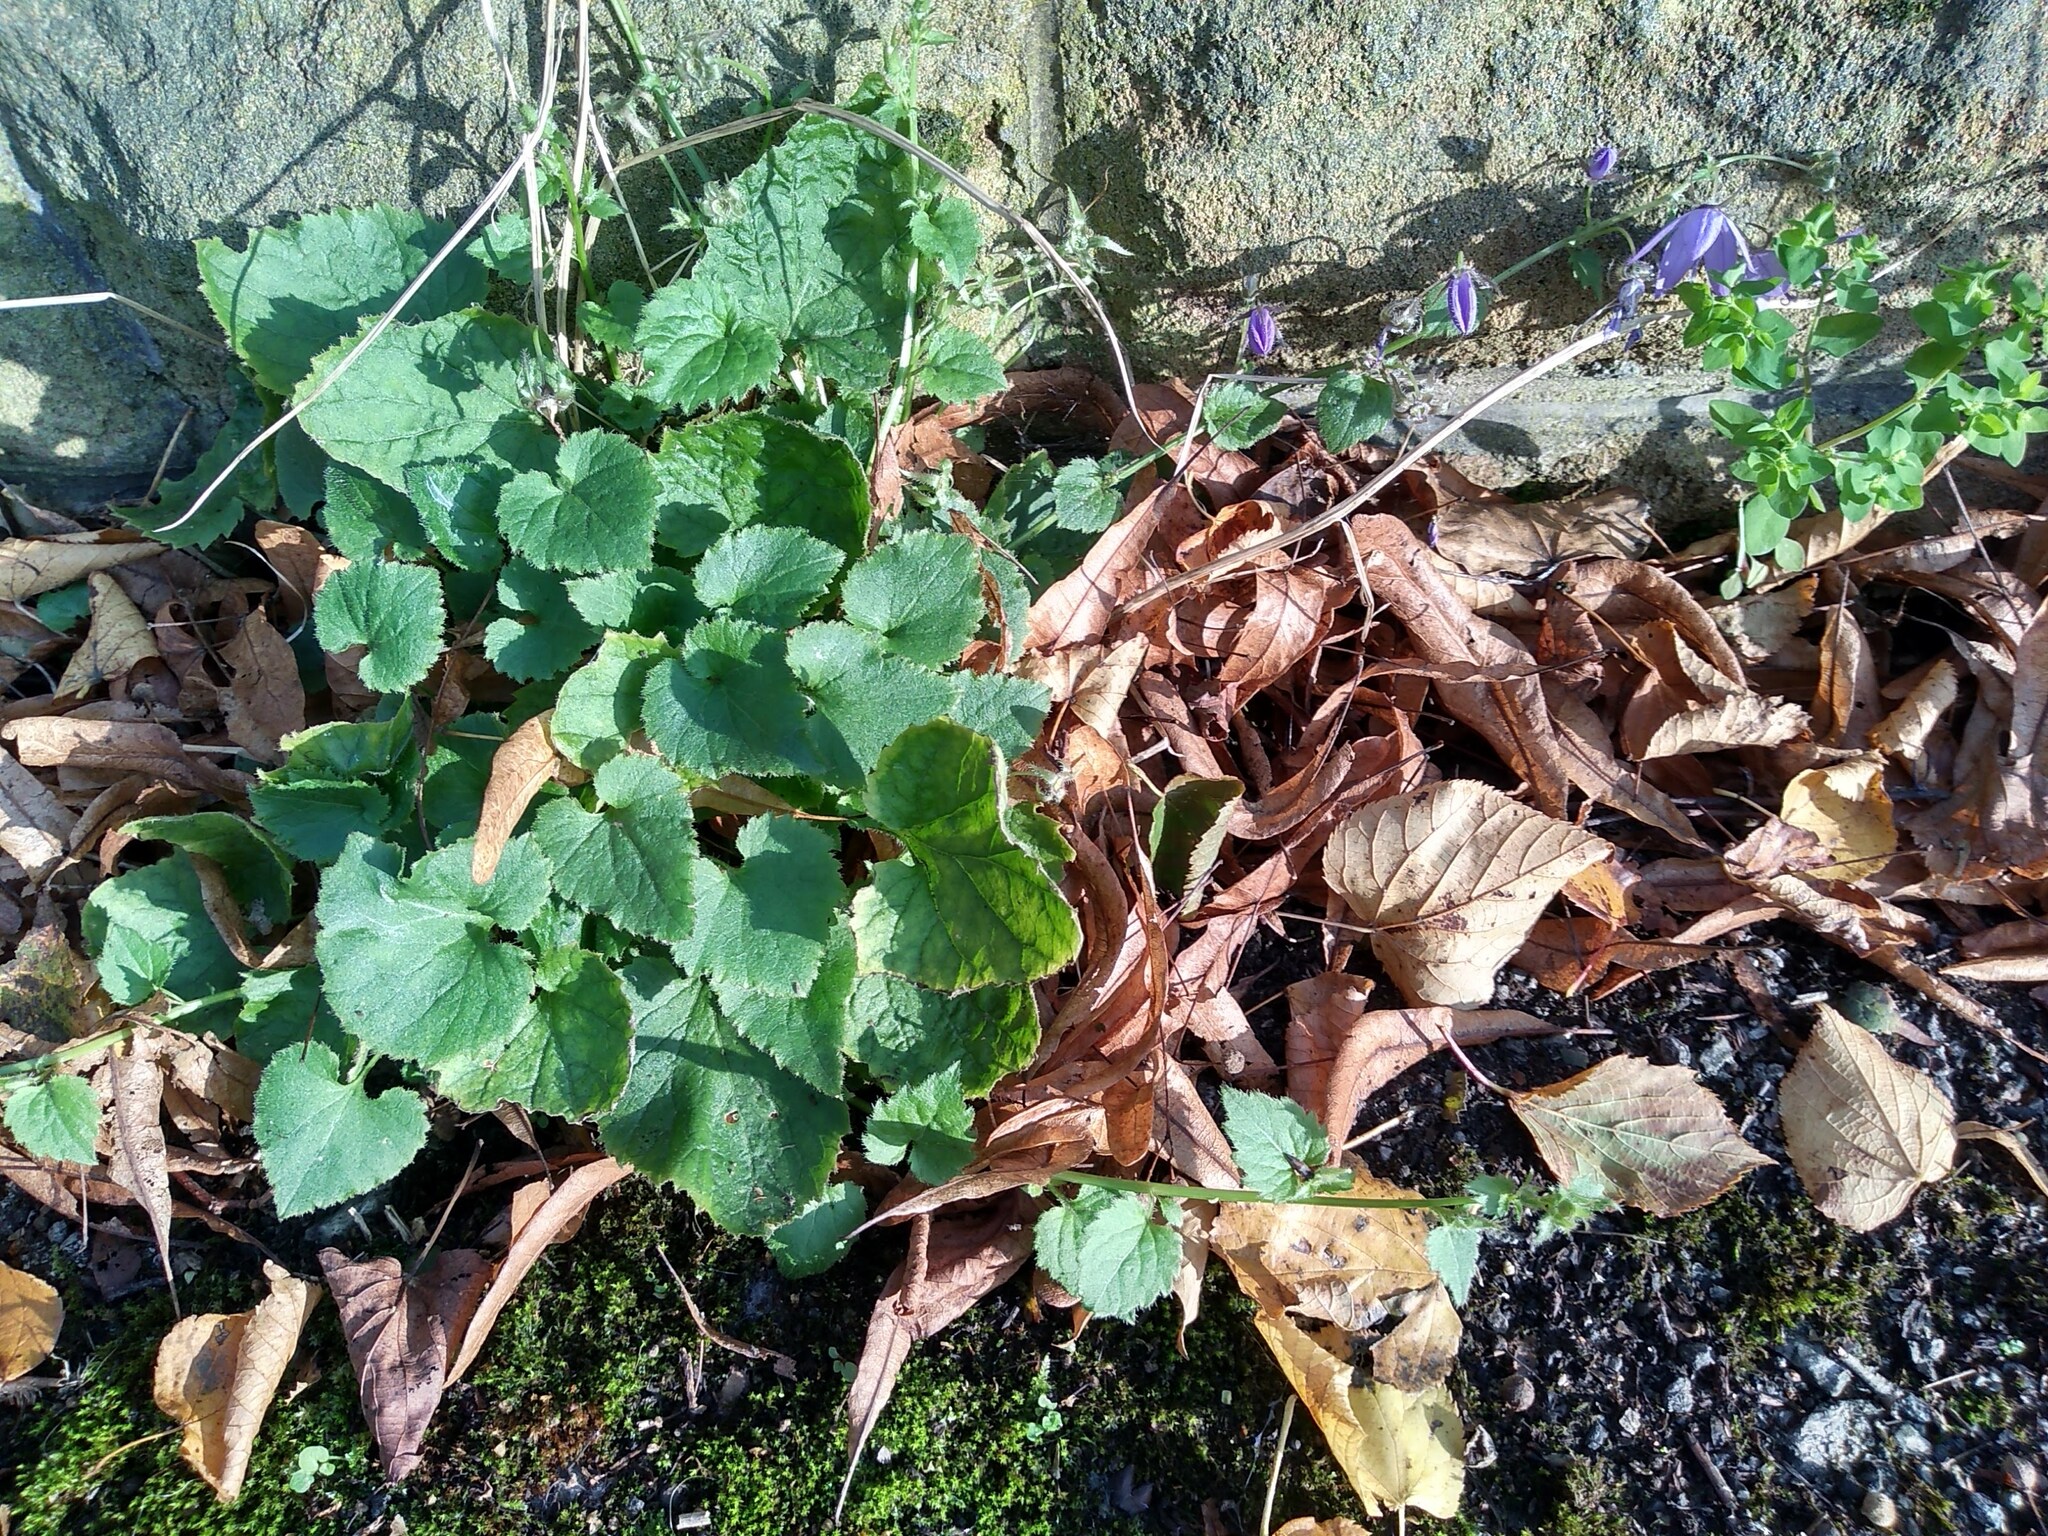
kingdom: Plantae
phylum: Tracheophyta
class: Magnoliopsida
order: Asterales
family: Campanulaceae
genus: Campanula
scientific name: Campanula poscharskyana
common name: Trailing bellflower
